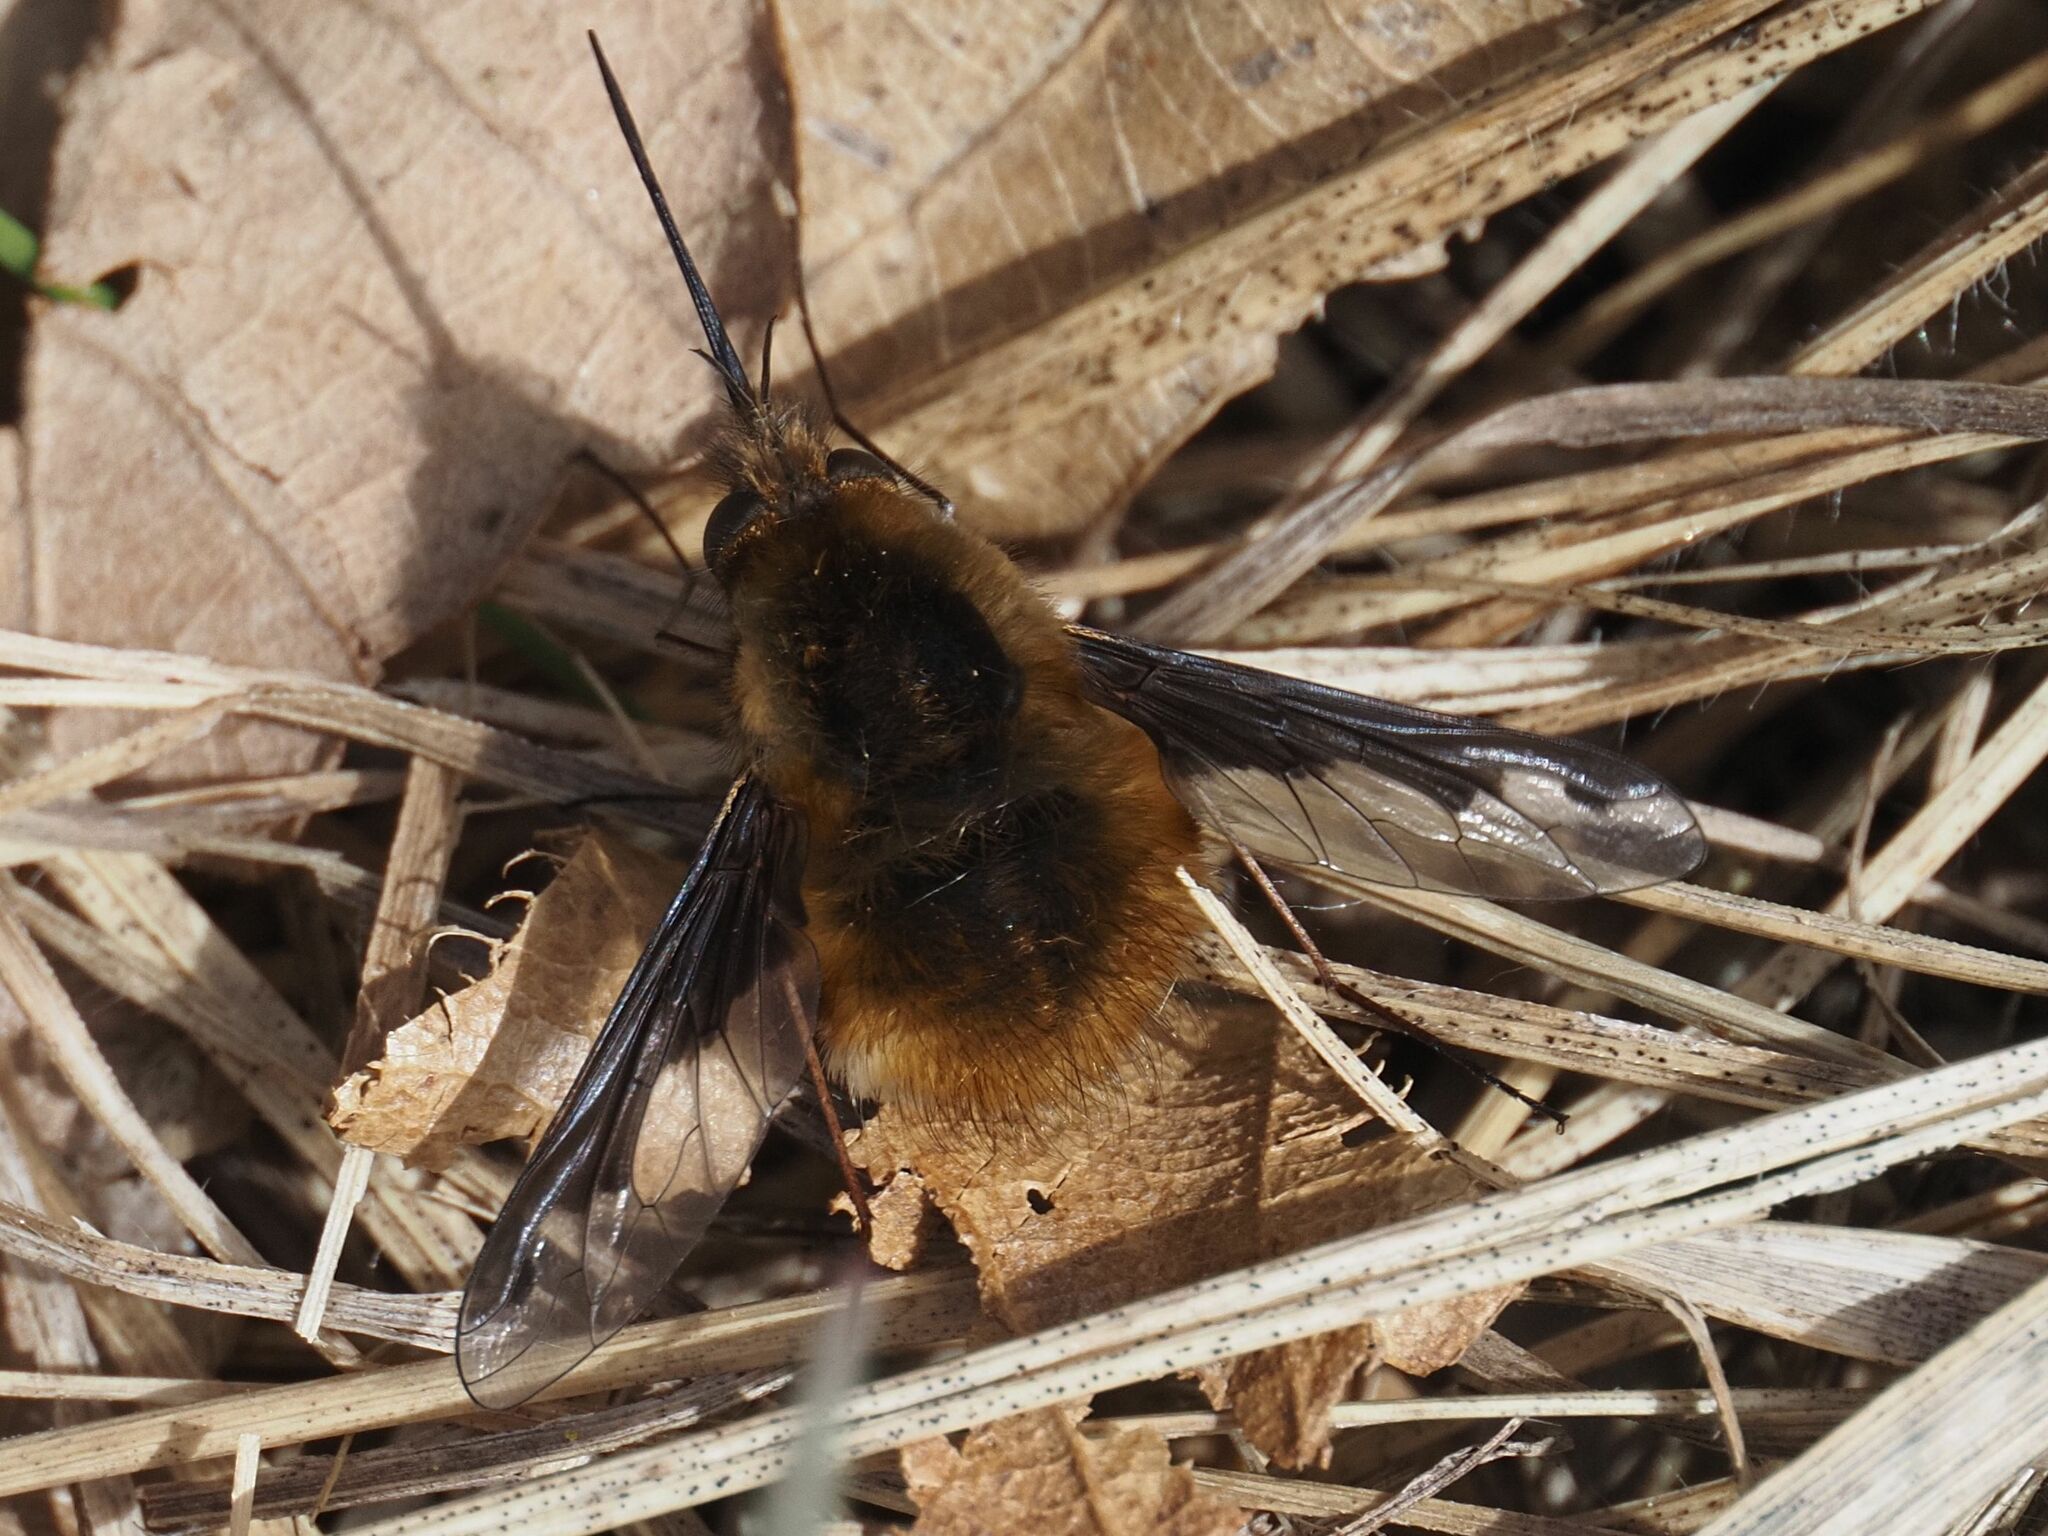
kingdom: Animalia
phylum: Arthropoda
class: Insecta
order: Diptera
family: Bombyliidae
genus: Bombylius
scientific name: Bombylius major
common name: Bee fly
